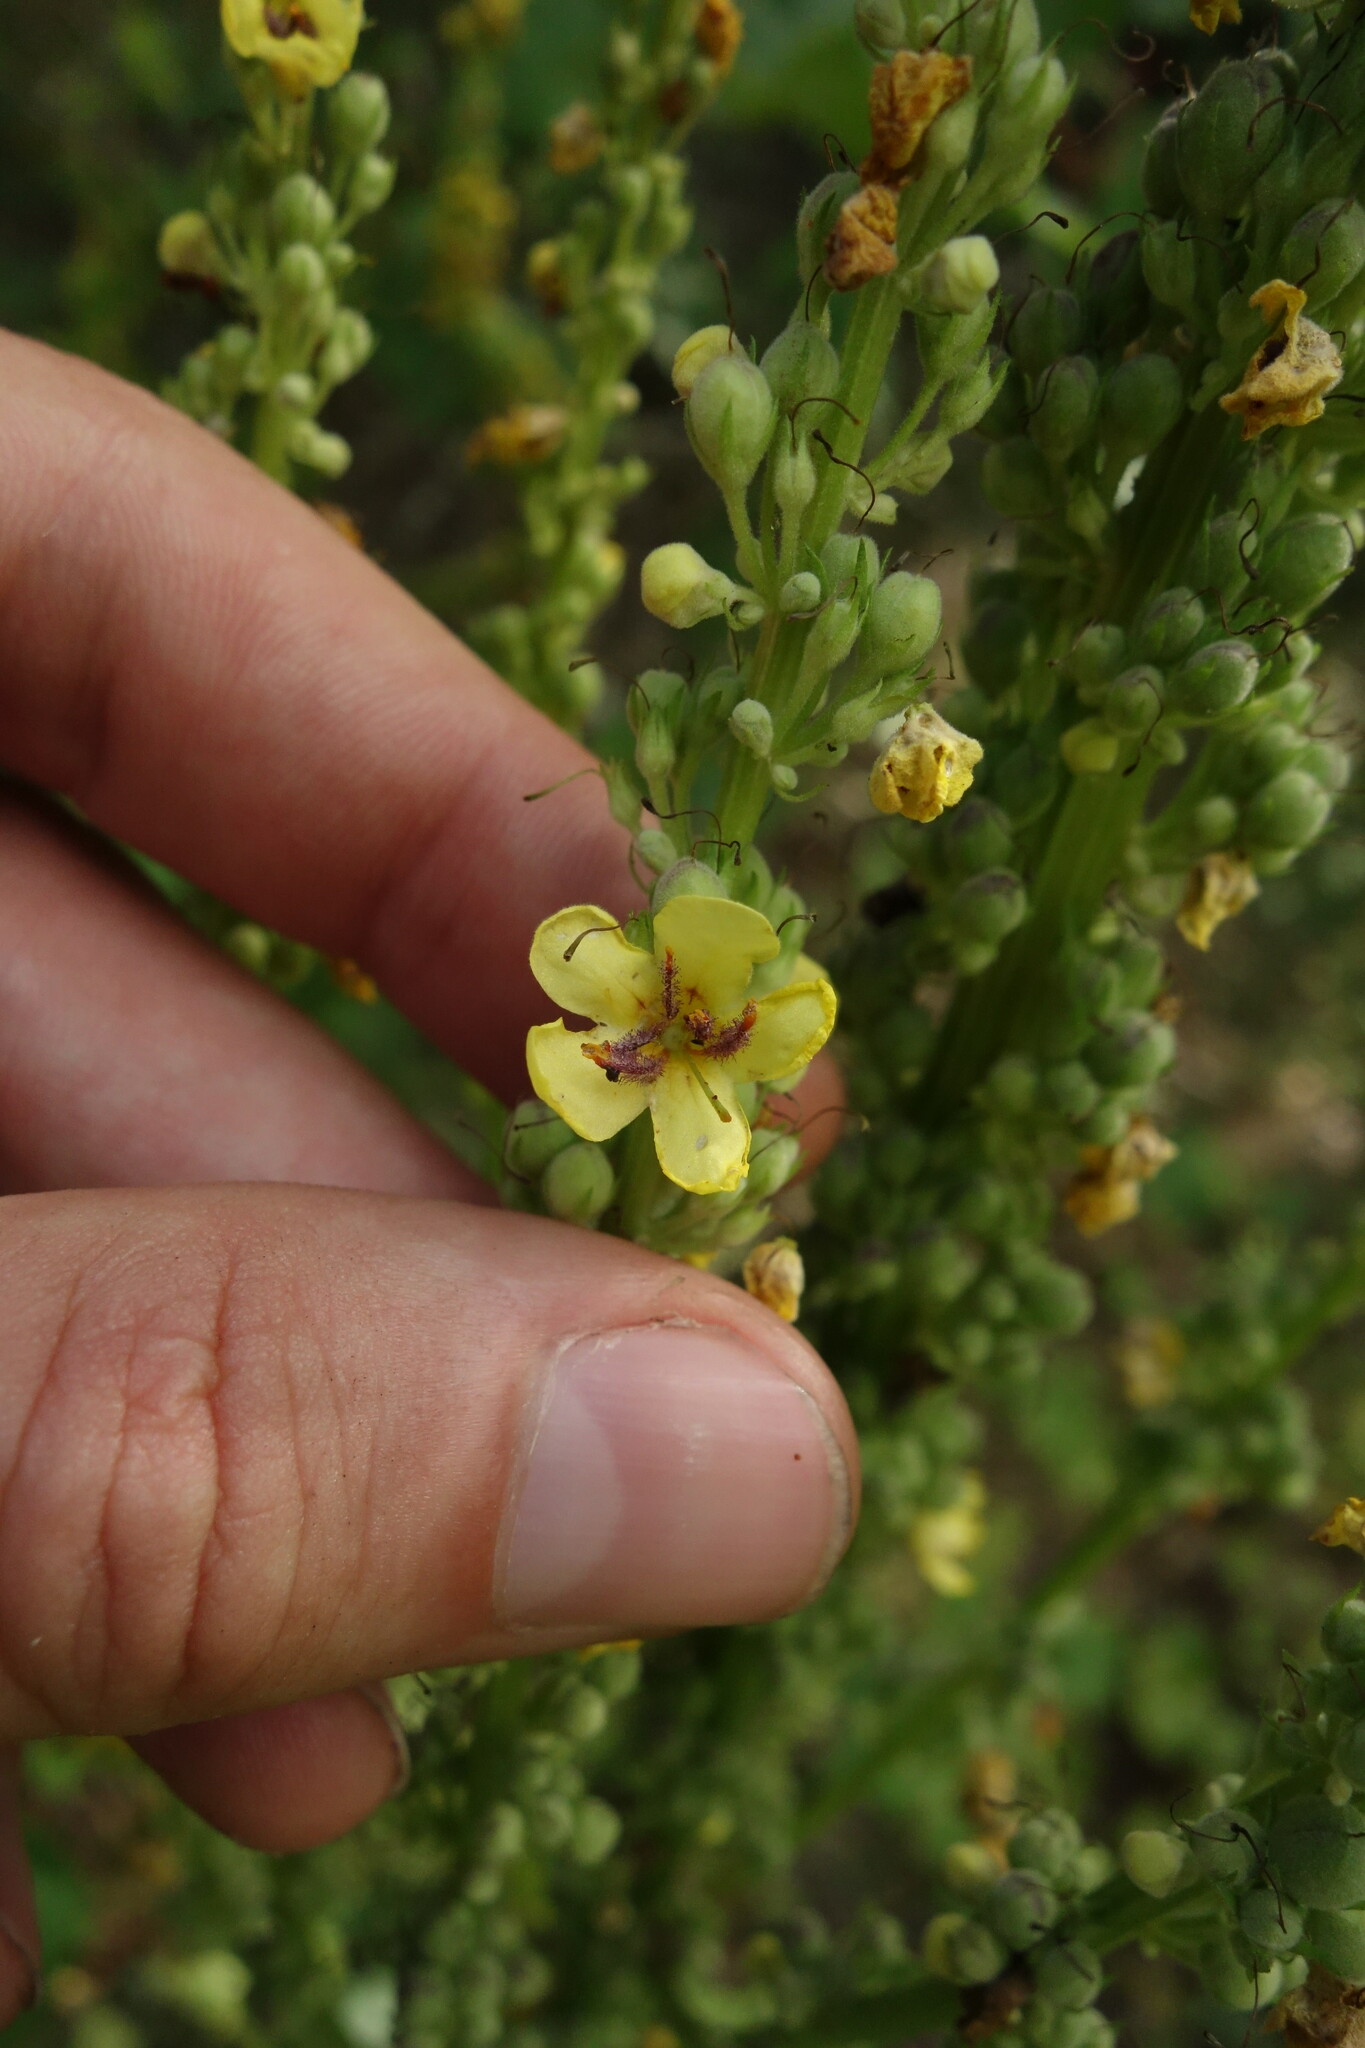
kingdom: Plantae
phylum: Tracheophyta
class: Magnoliopsida
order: Lamiales
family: Scrophulariaceae
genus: Verbascum
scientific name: Verbascum nigrum
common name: Dark mullein
